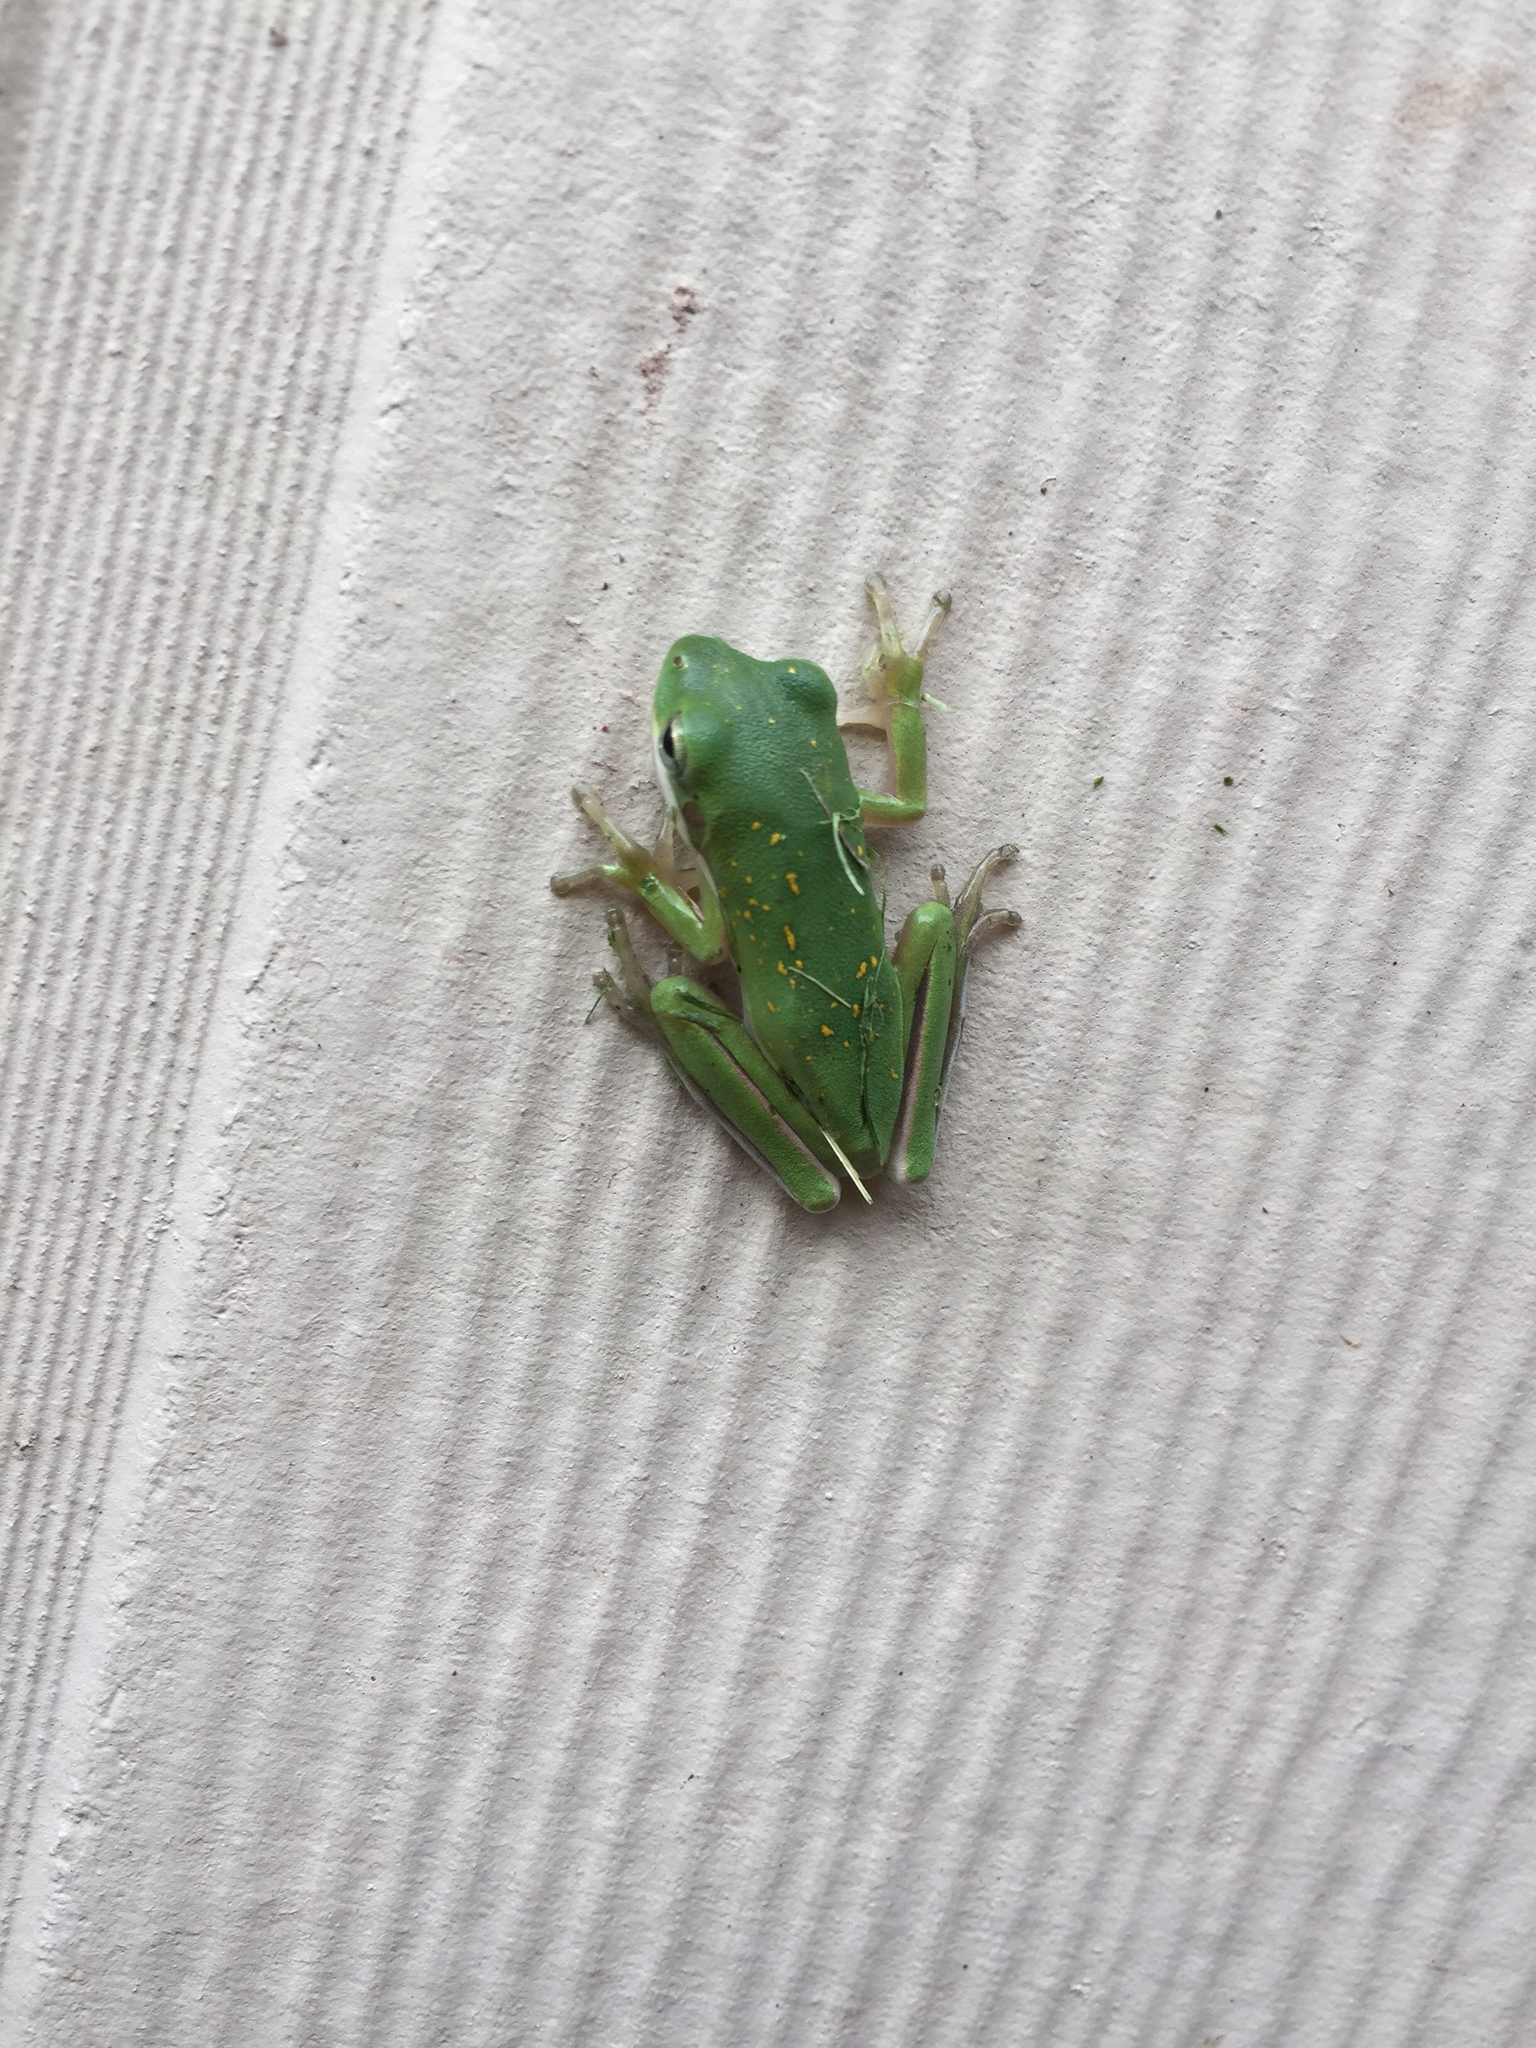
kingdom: Animalia
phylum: Chordata
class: Amphibia
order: Anura
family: Hylidae
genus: Dryophytes
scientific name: Dryophytes cinereus
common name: Green treefrog
